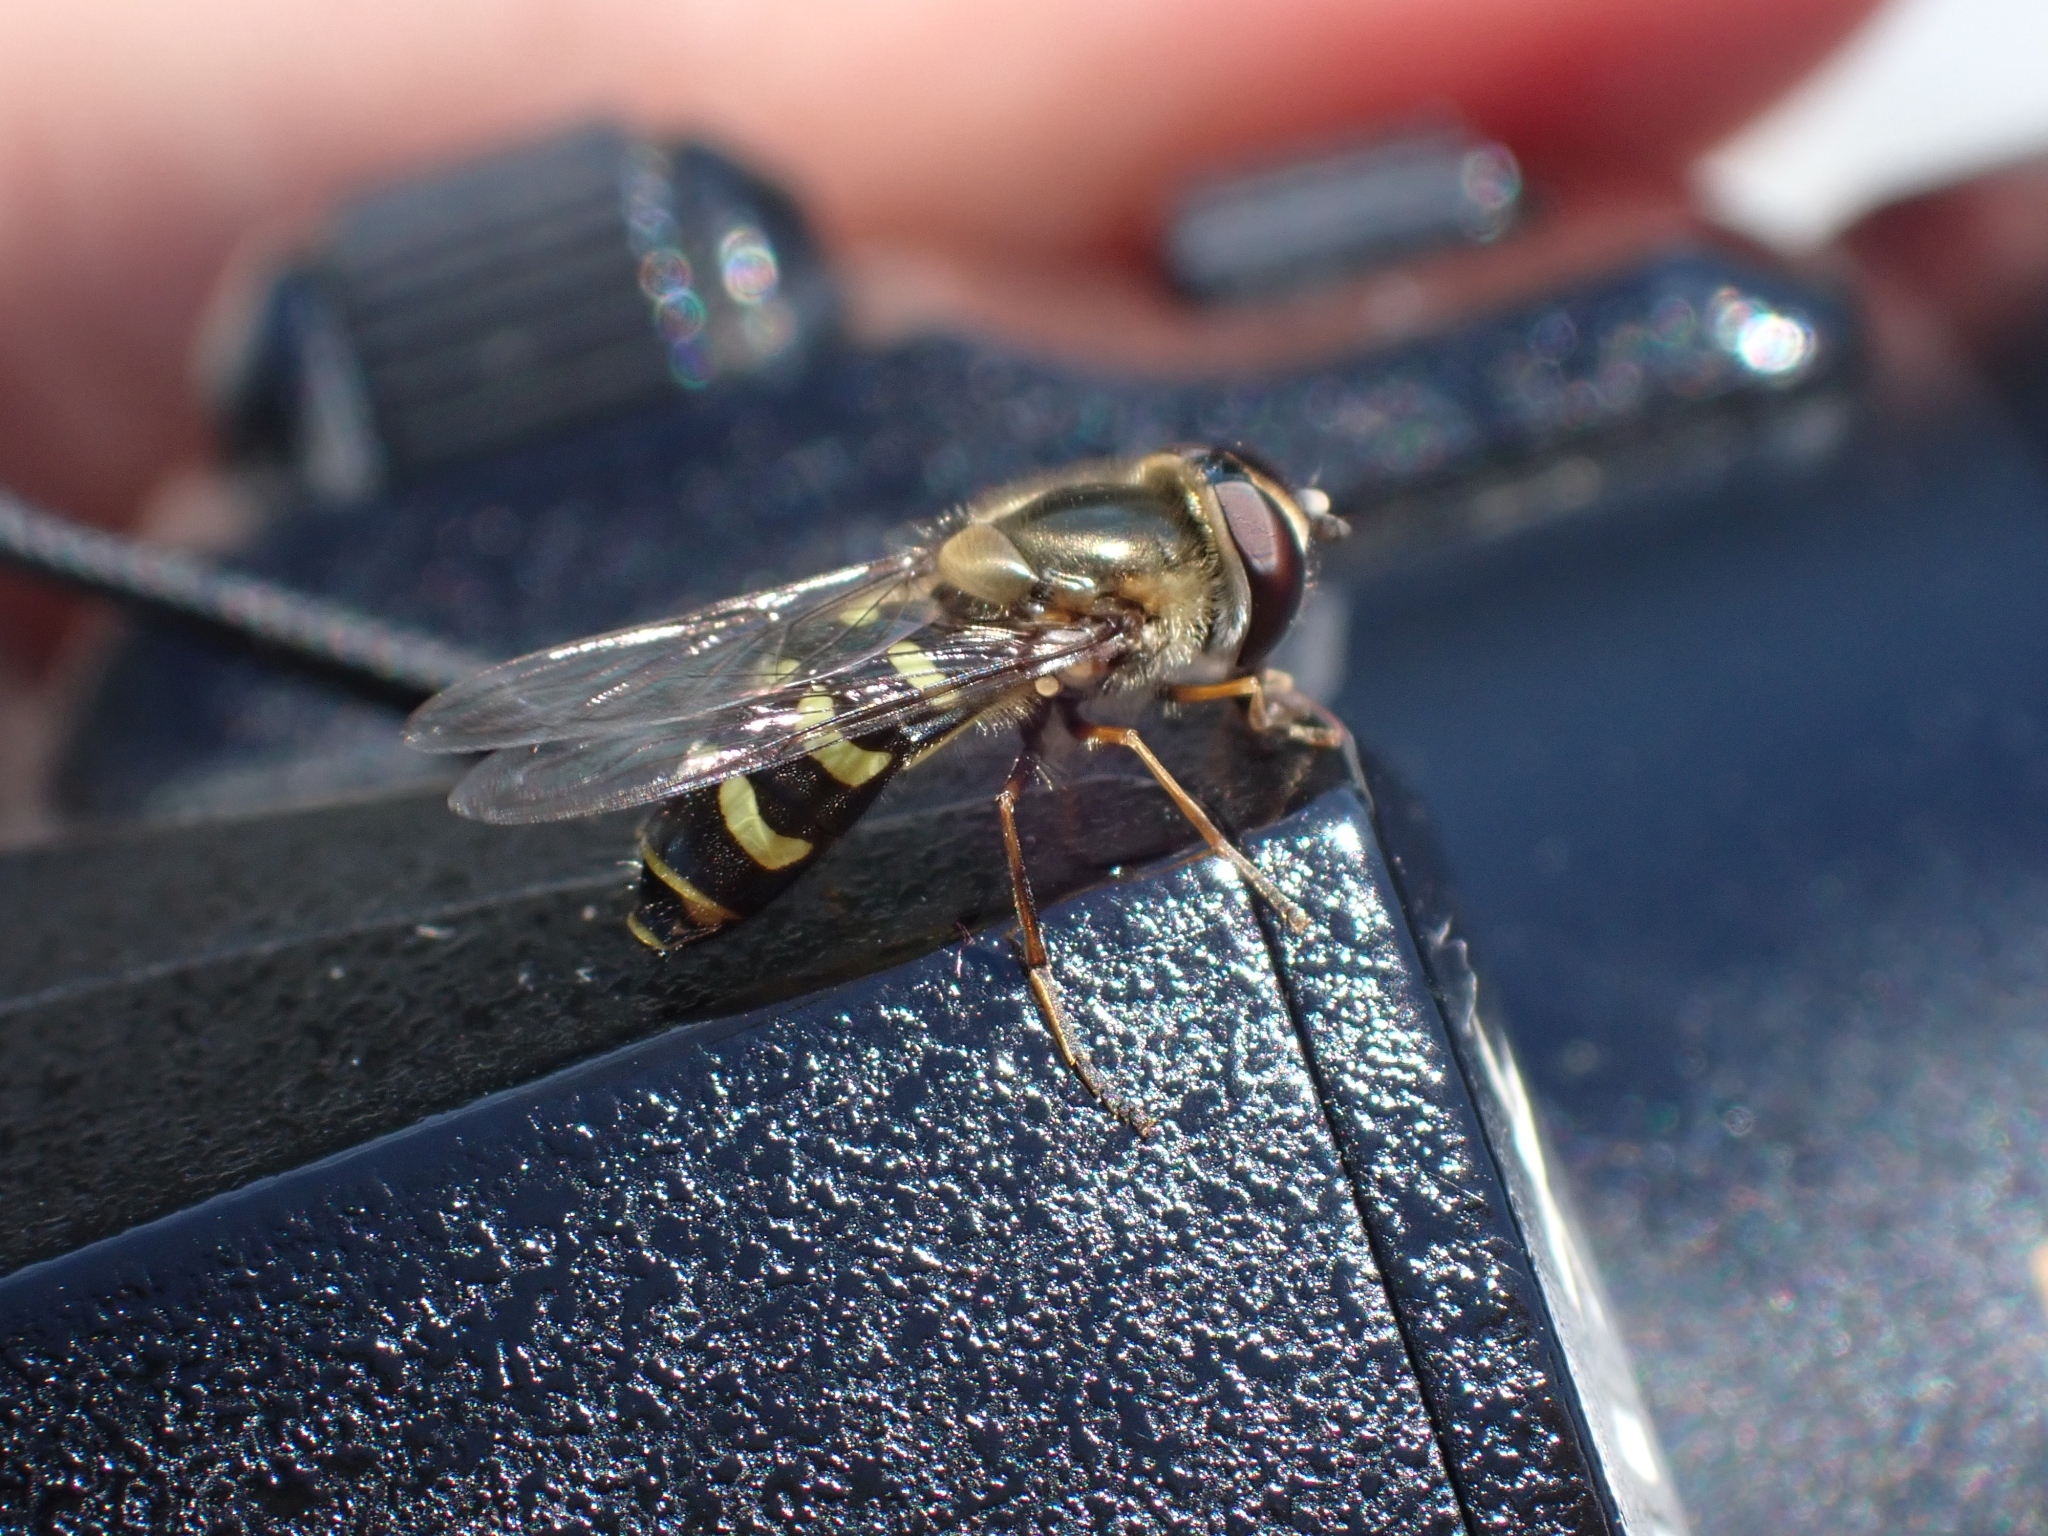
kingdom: Animalia
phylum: Arthropoda
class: Insecta
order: Diptera
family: Syrphidae
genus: Lapposyrphus
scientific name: Lapposyrphus lapponicus
